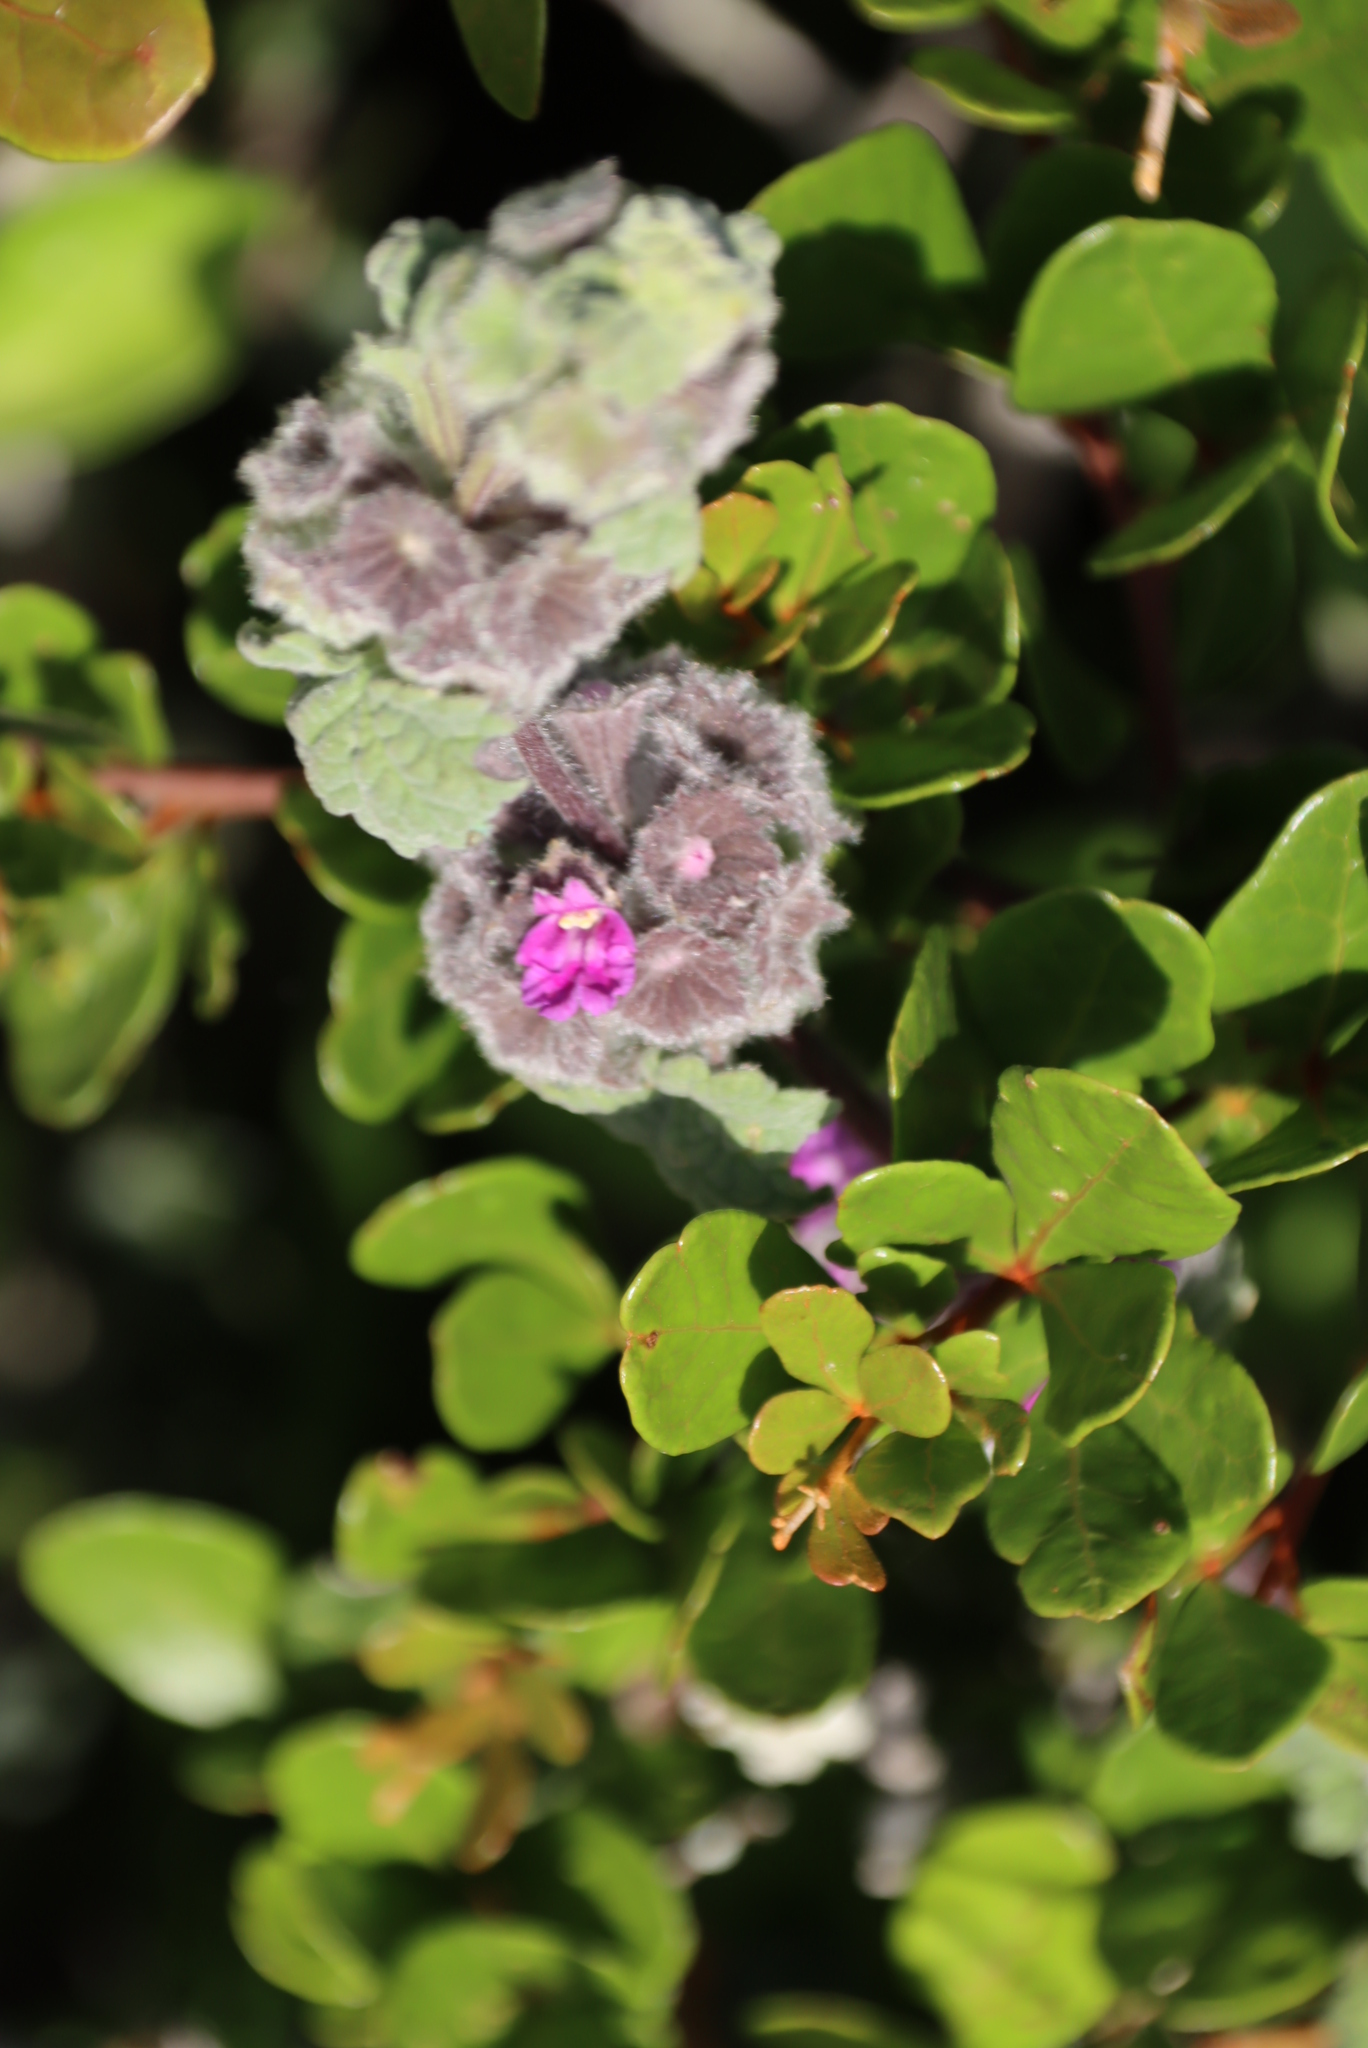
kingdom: Plantae
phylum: Tracheophyta
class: Magnoliopsida
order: Lamiales
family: Lamiaceae
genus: Pseudodictamnus
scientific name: Pseudodictamnus africanus
